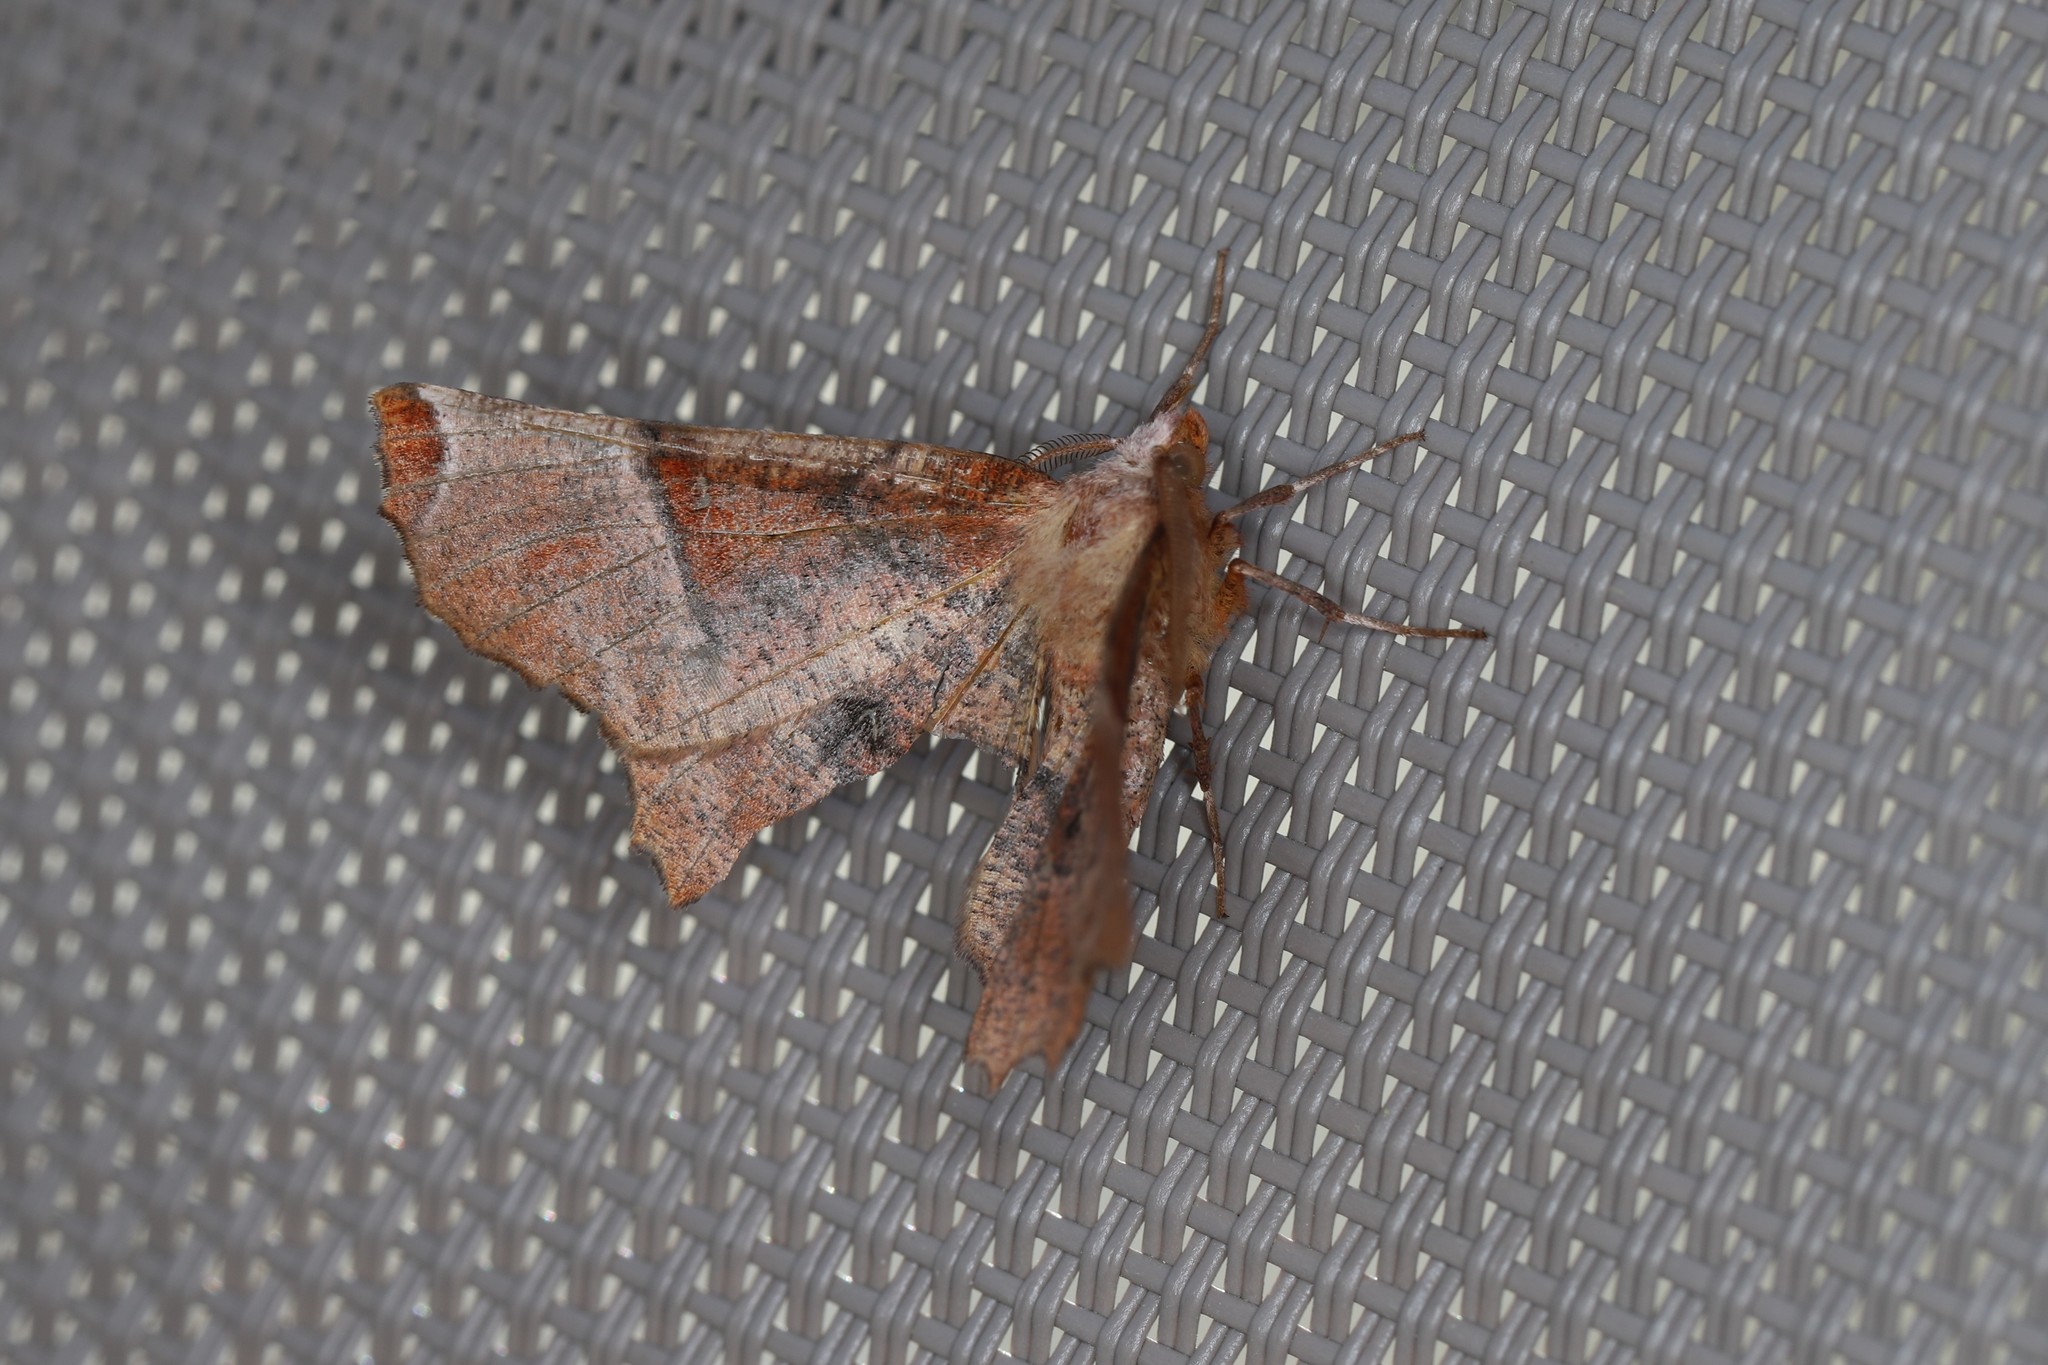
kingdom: Animalia
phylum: Arthropoda
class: Insecta
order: Lepidoptera
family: Geometridae
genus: Selenia
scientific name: Selenia lunularia
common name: Lunar thorn
